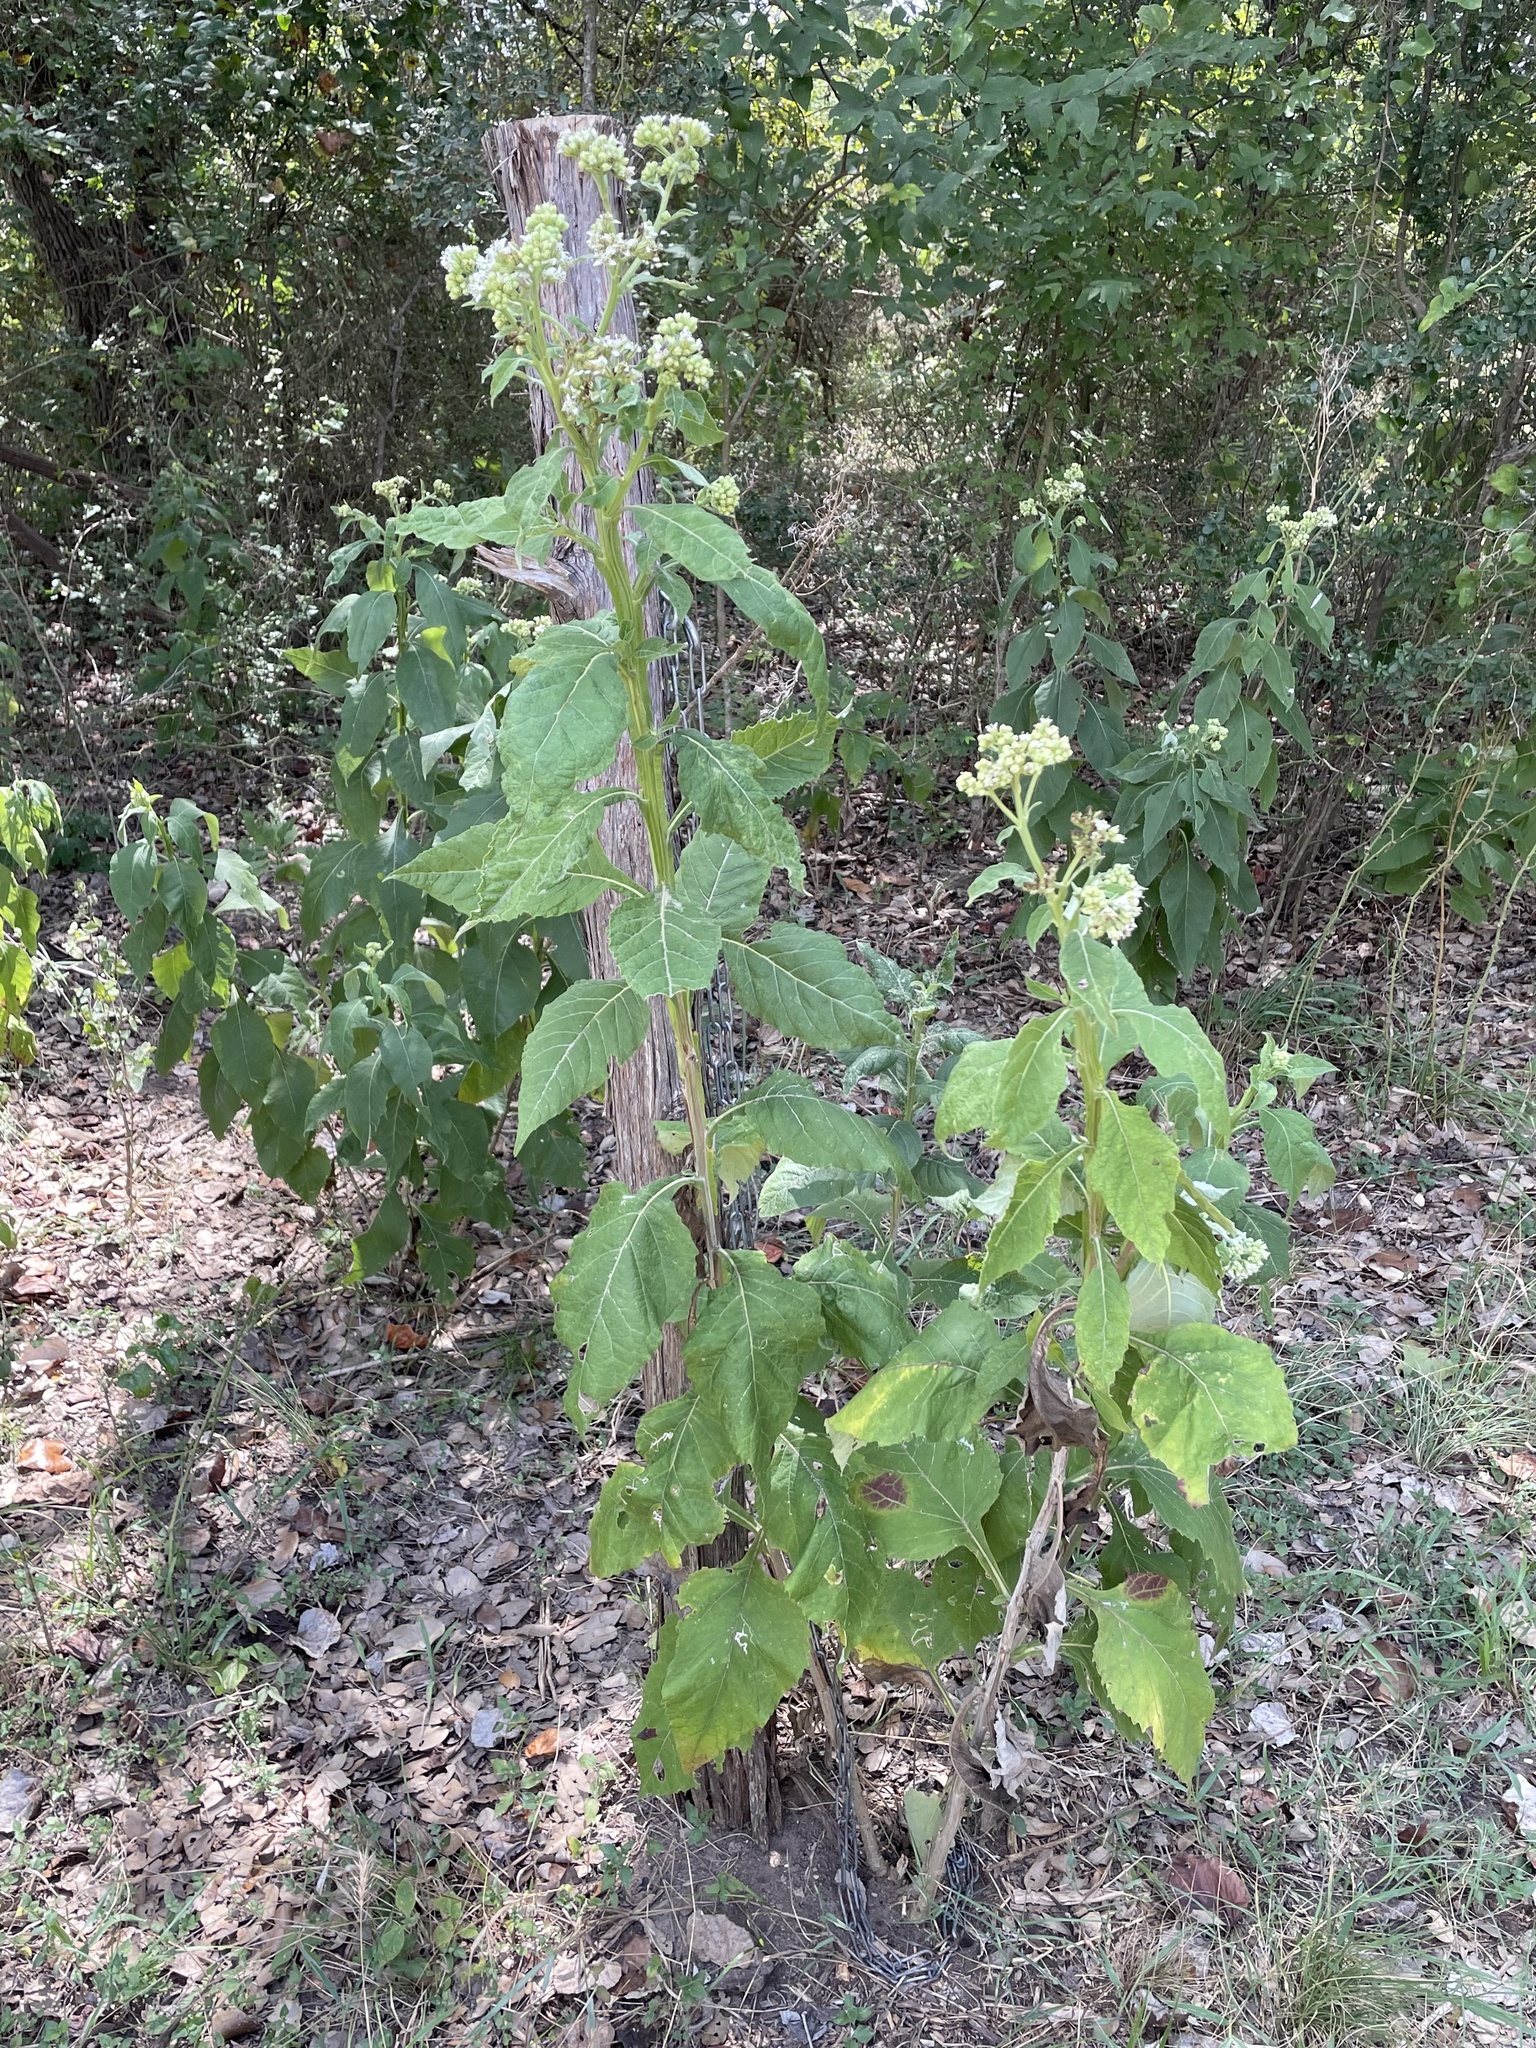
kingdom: Plantae
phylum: Tracheophyta
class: Magnoliopsida
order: Asterales
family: Asteraceae
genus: Verbesina
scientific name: Verbesina virginica
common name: Frostweed
